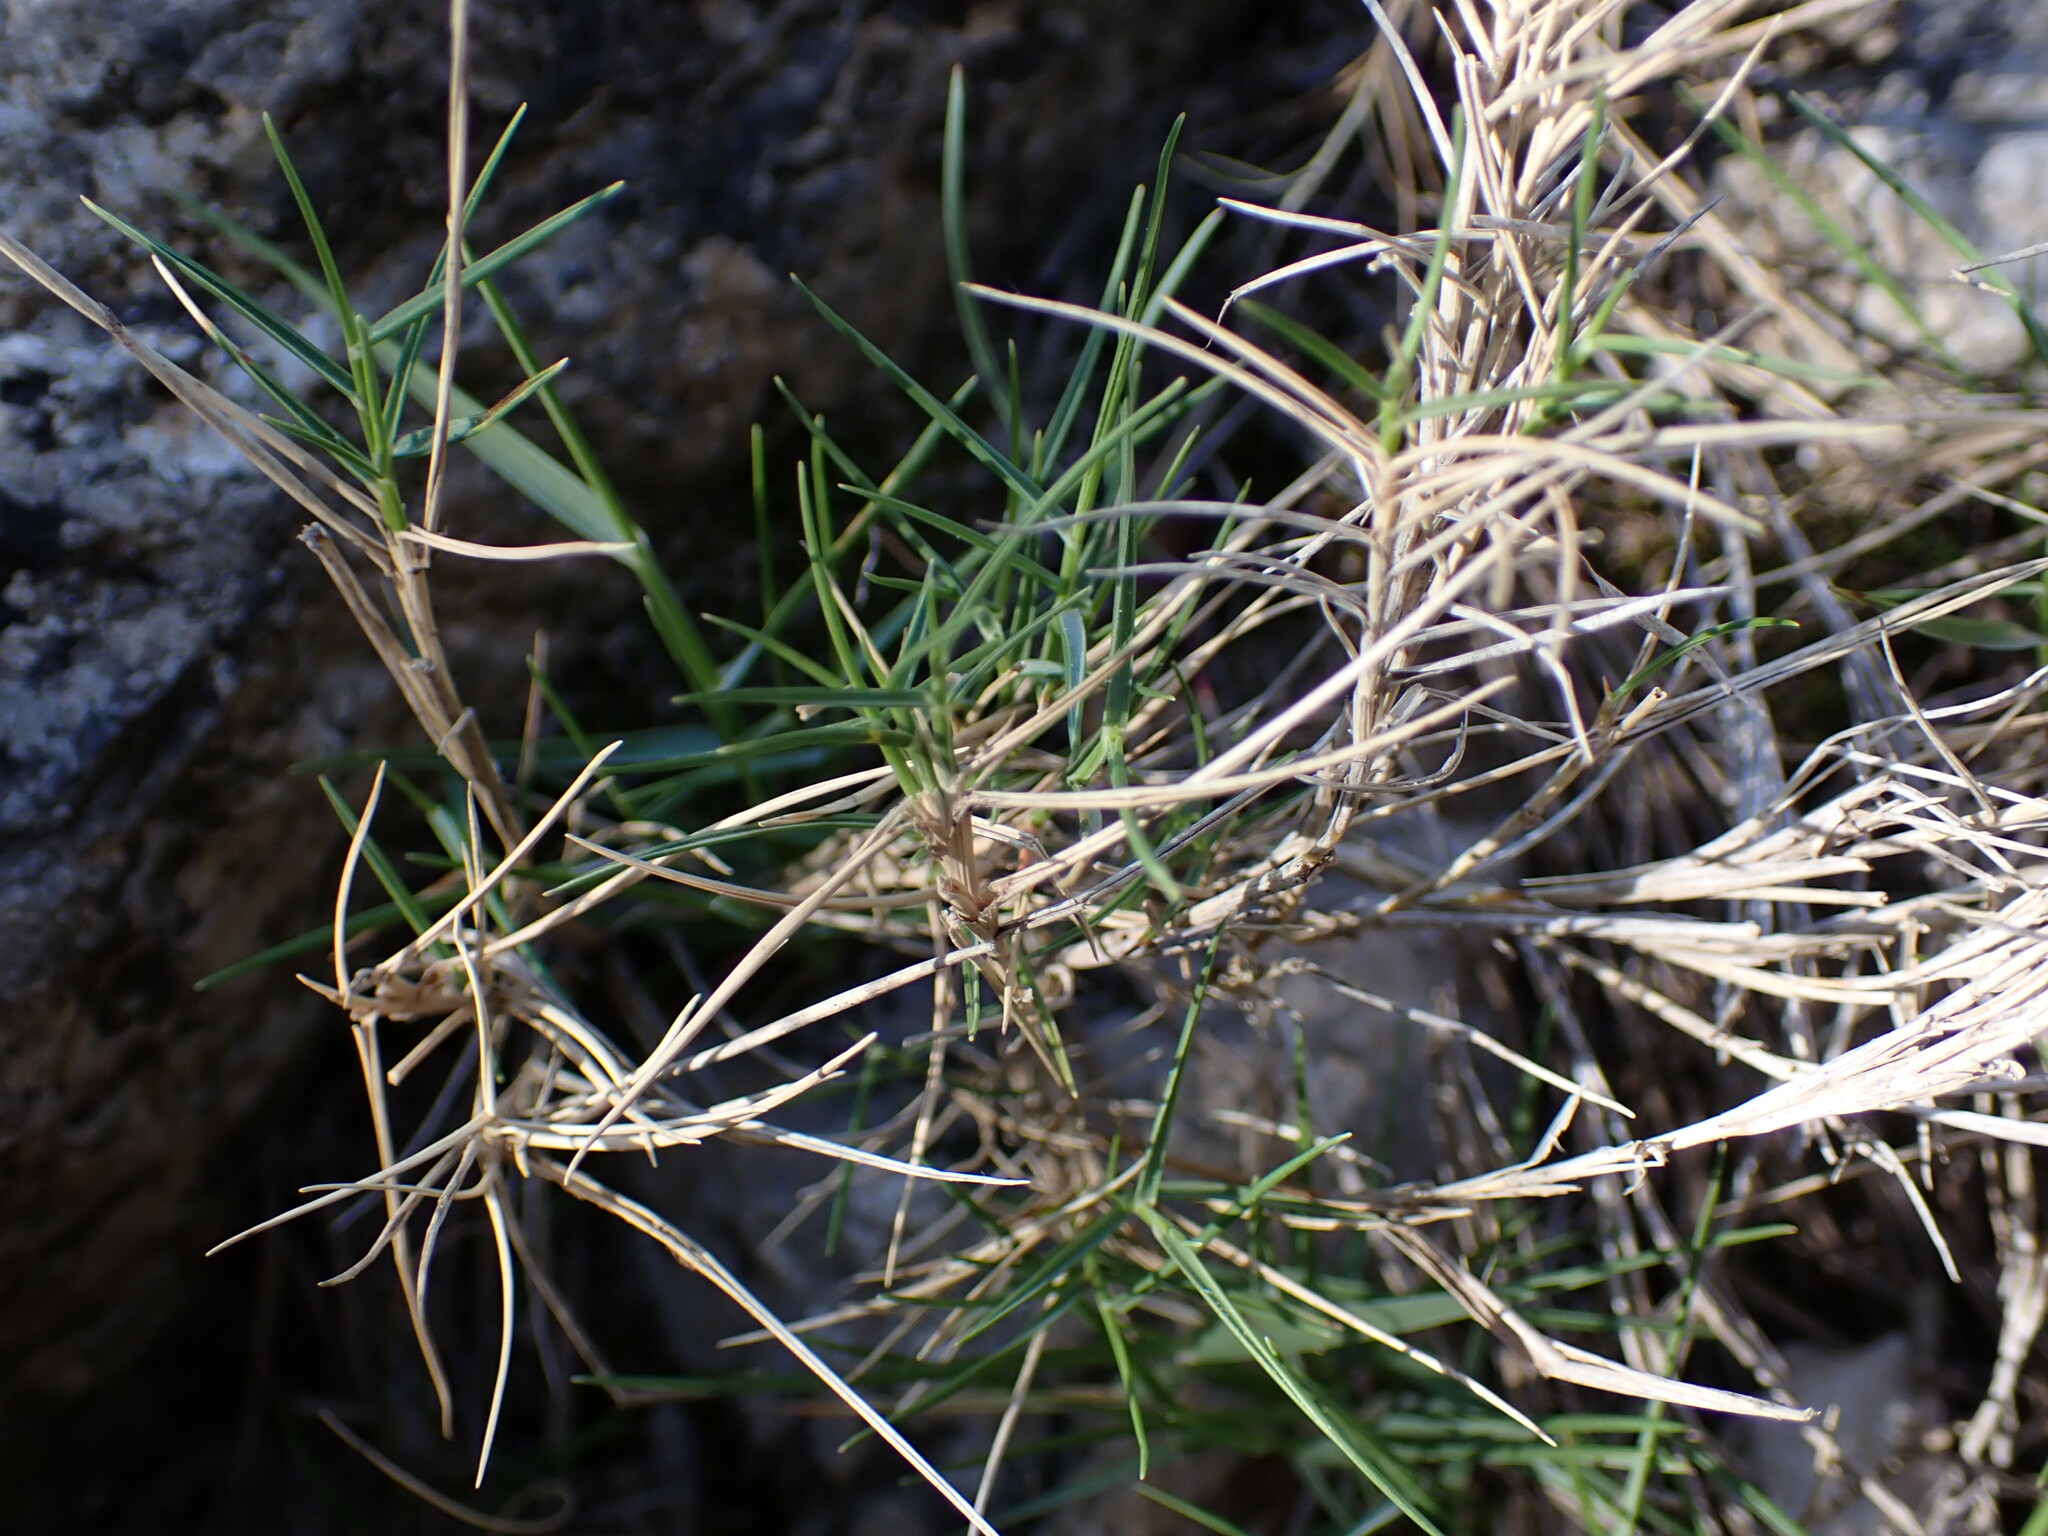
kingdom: Plantae
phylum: Tracheophyta
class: Liliopsida
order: Poales
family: Poaceae
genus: Brachypodium
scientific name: Brachypodium retusum
